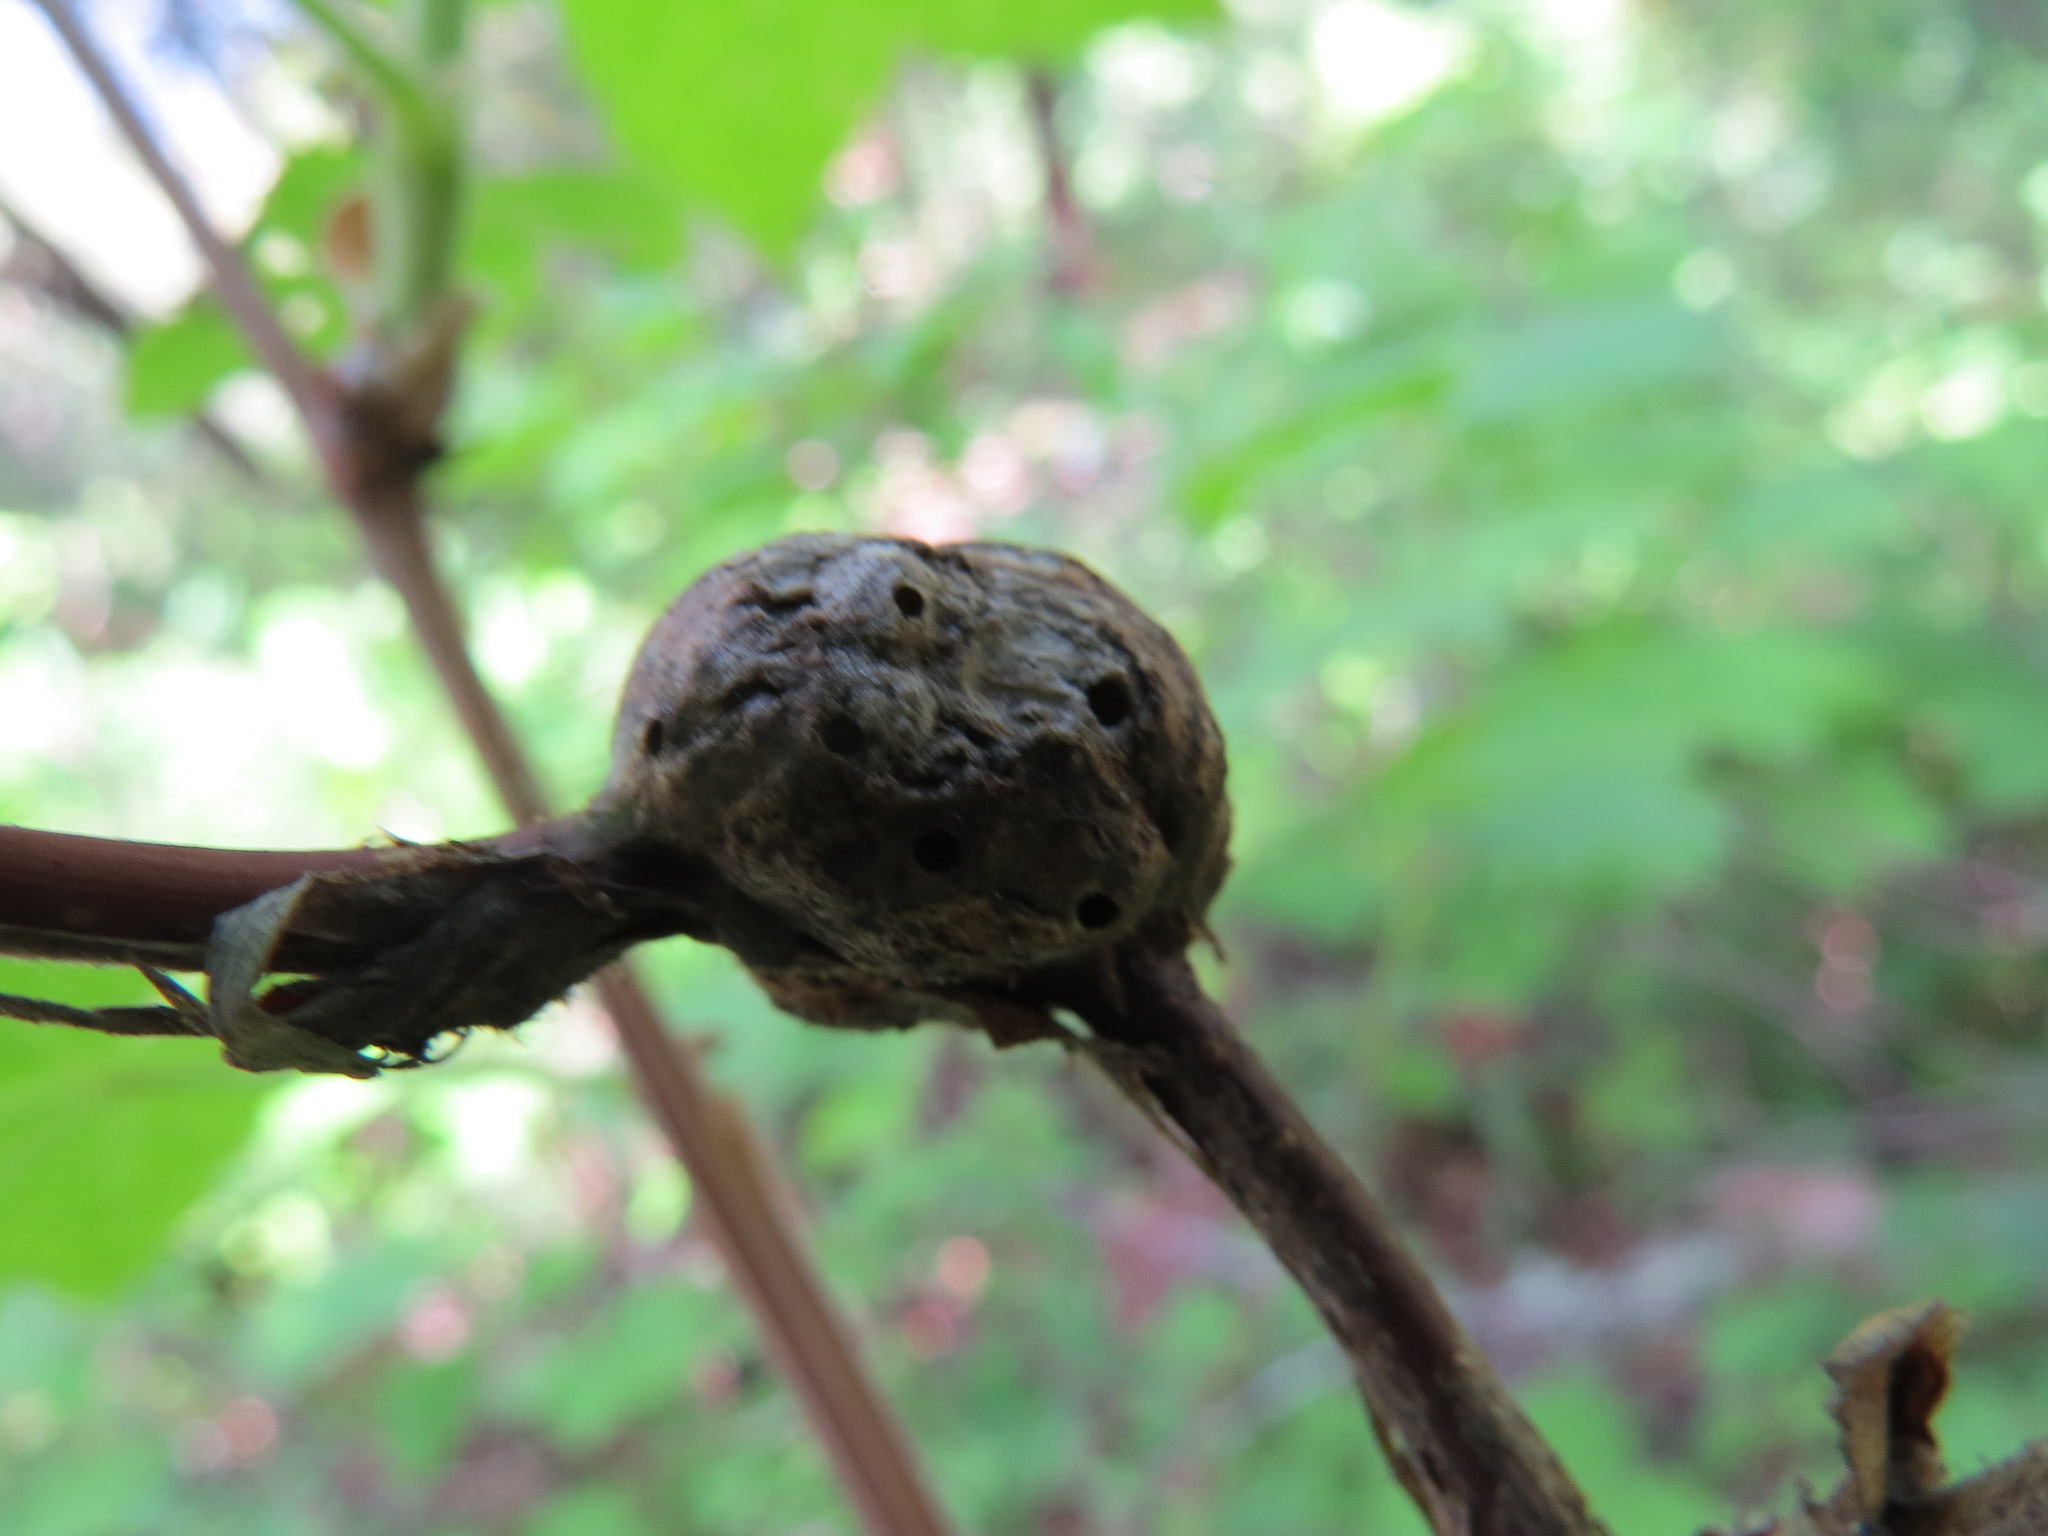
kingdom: Animalia
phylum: Arthropoda
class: Insecta
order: Hymenoptera
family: Cynipidae
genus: Diastrophus
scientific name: Diastrophus
